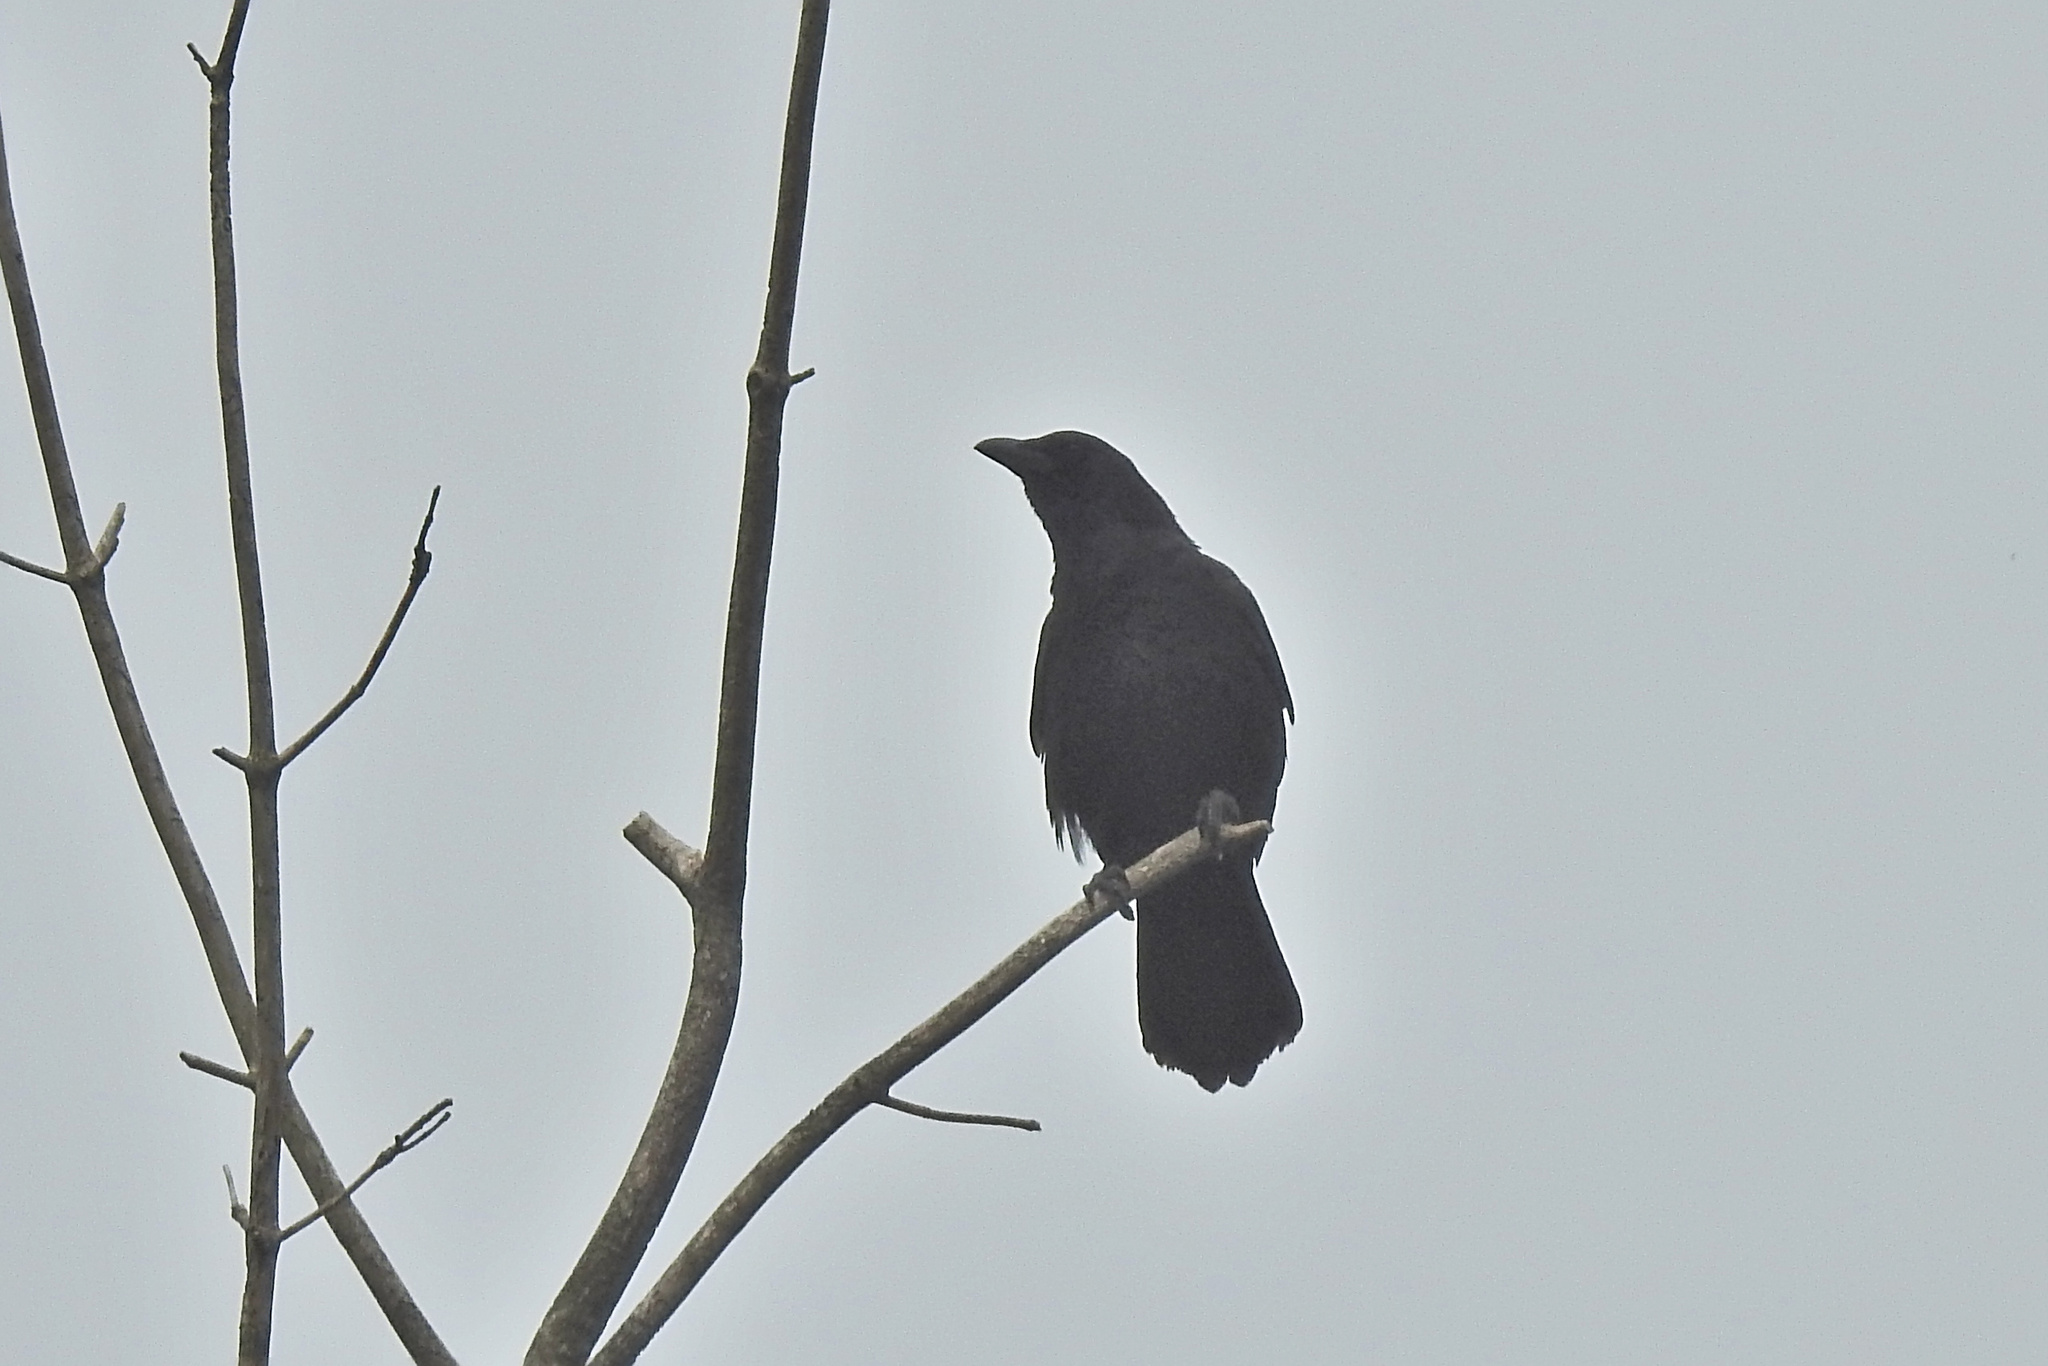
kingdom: Animalia
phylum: Chordata
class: Aves
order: Passeriformes
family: Corvidae
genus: Corvus
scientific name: Corvus brachyrhynchos
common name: American crow
